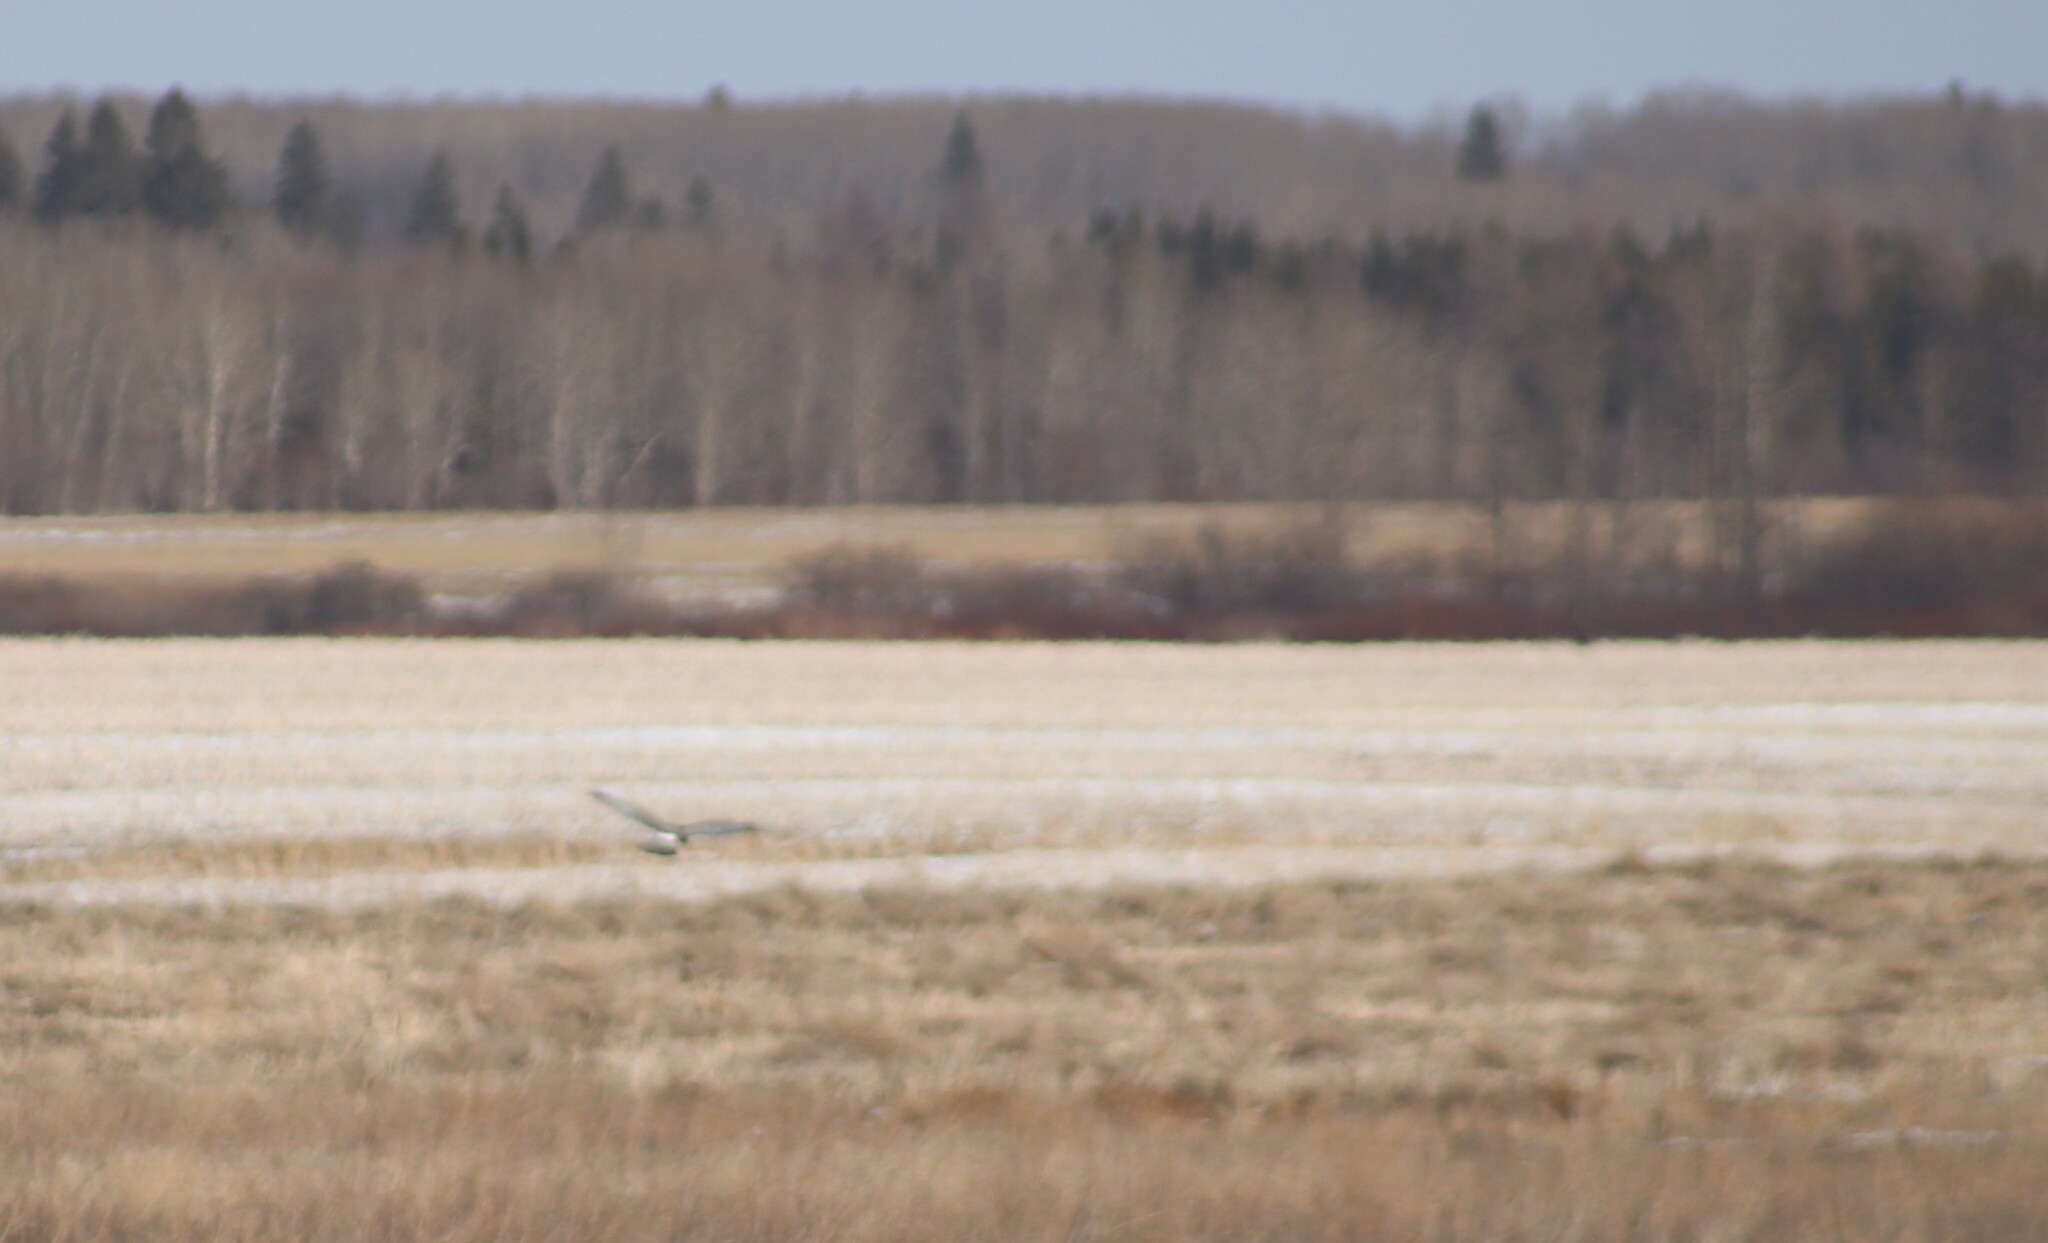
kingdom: Animalia
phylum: Chordata
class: Aves
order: Accipitriformes
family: Accipitridae
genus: Circus
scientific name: Circus cyaneus
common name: Hen harrier
